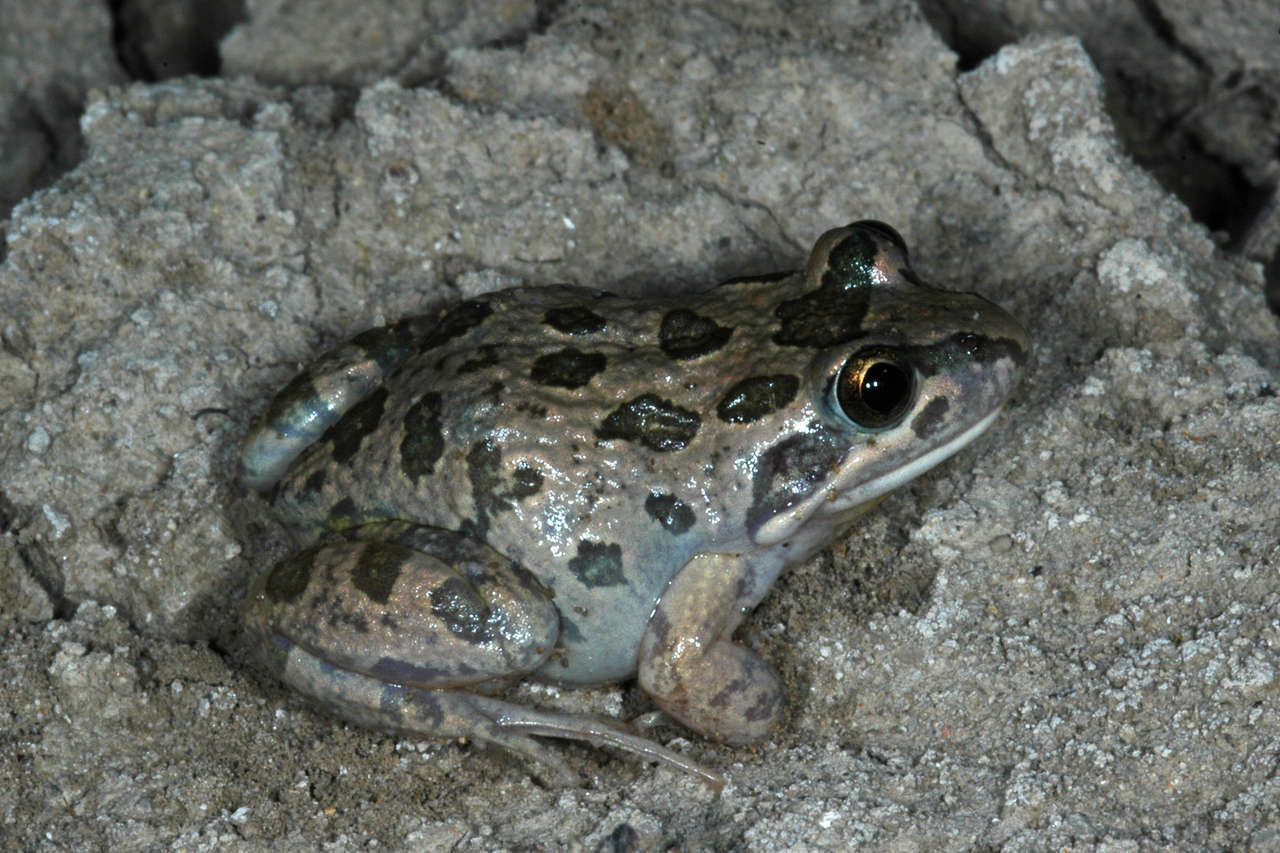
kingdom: Animalia
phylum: Chordata
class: Amphibia
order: Anura
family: Limnodynastidae
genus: Limnodynastes
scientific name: Limnodynastes tasmaniensis
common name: Spotted marsh frog
